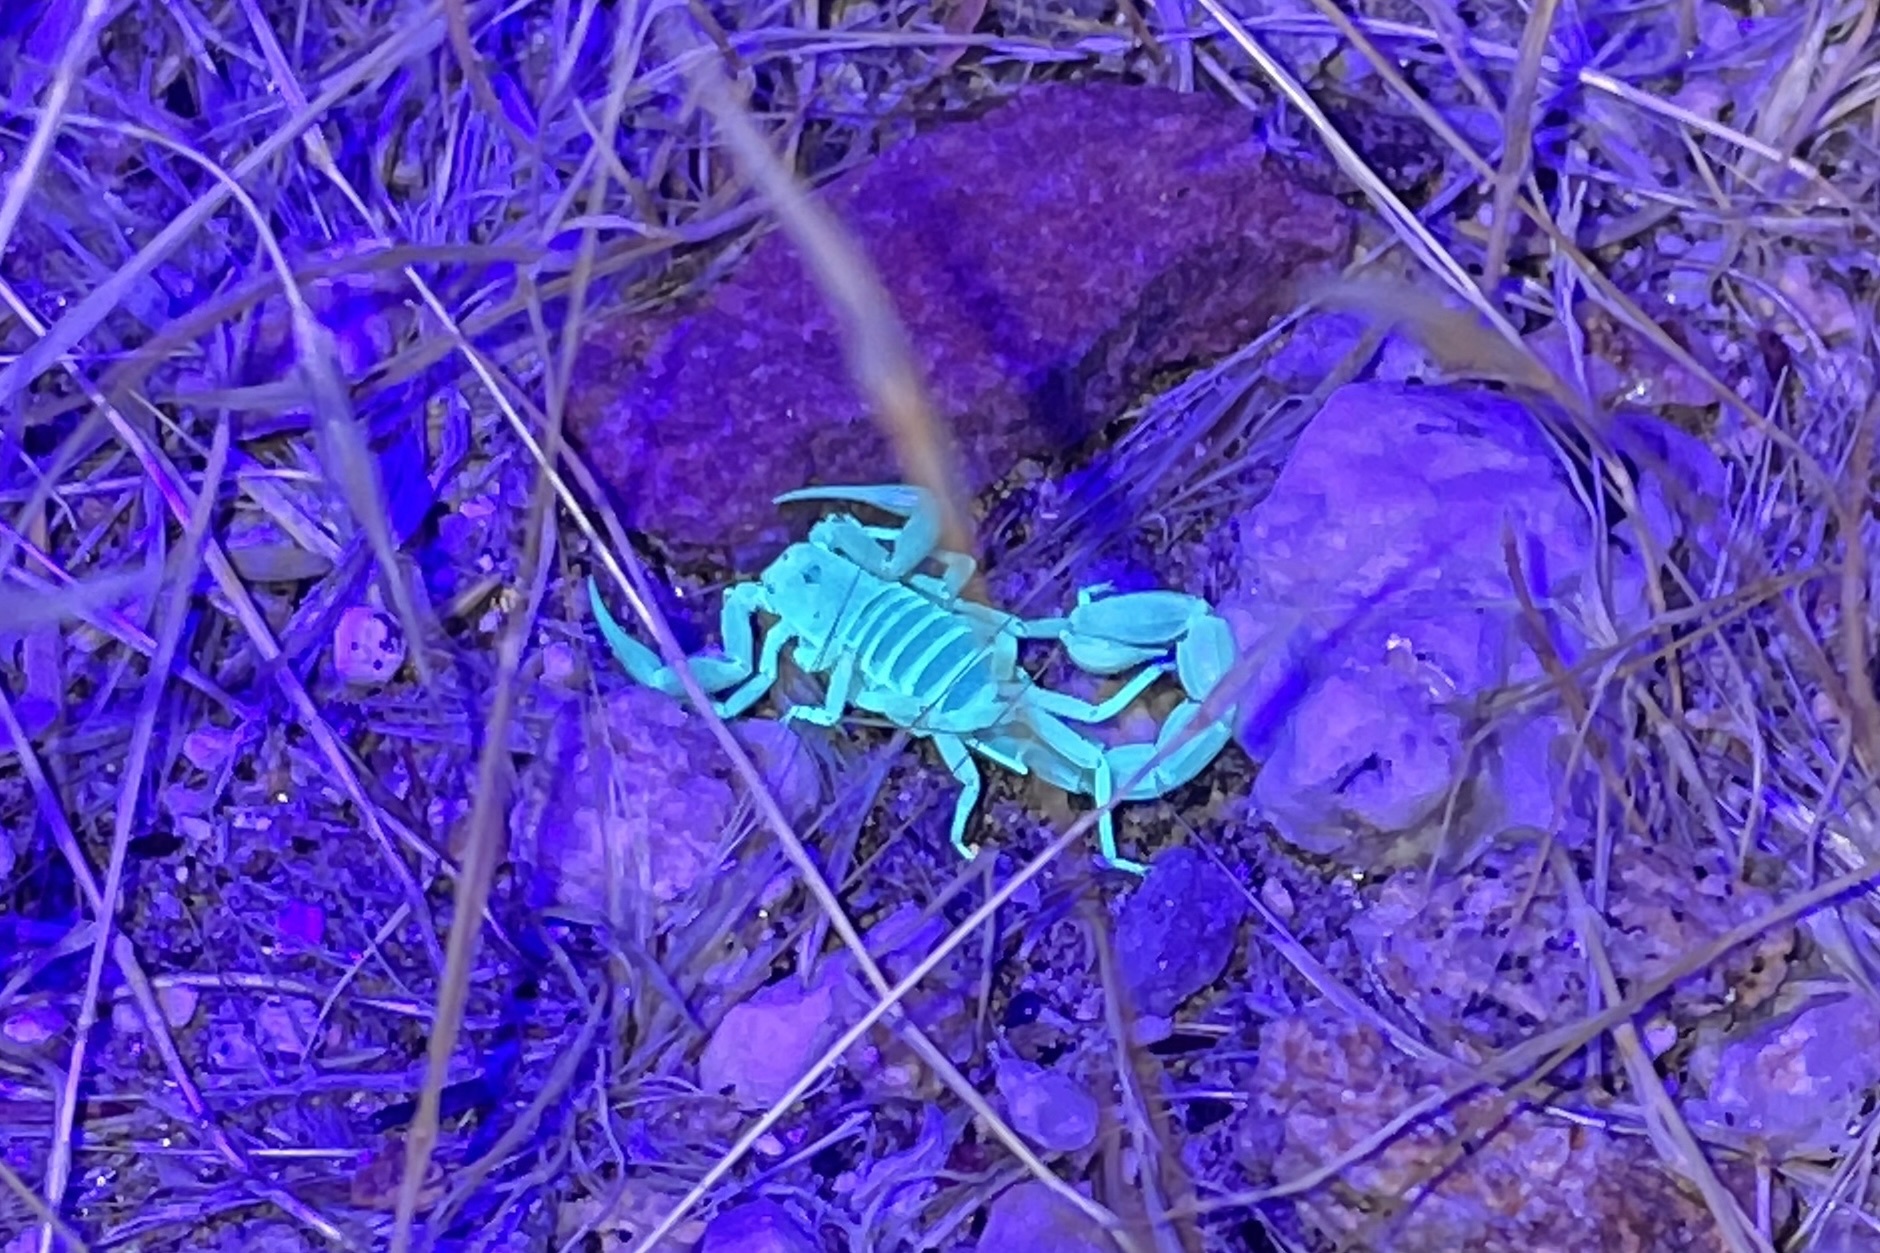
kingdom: Animalia
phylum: Arthropoda
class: Arachnida
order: Scorpiones
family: Vaejovidae
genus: Paravaejovis
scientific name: Paravaejovis waeringi
